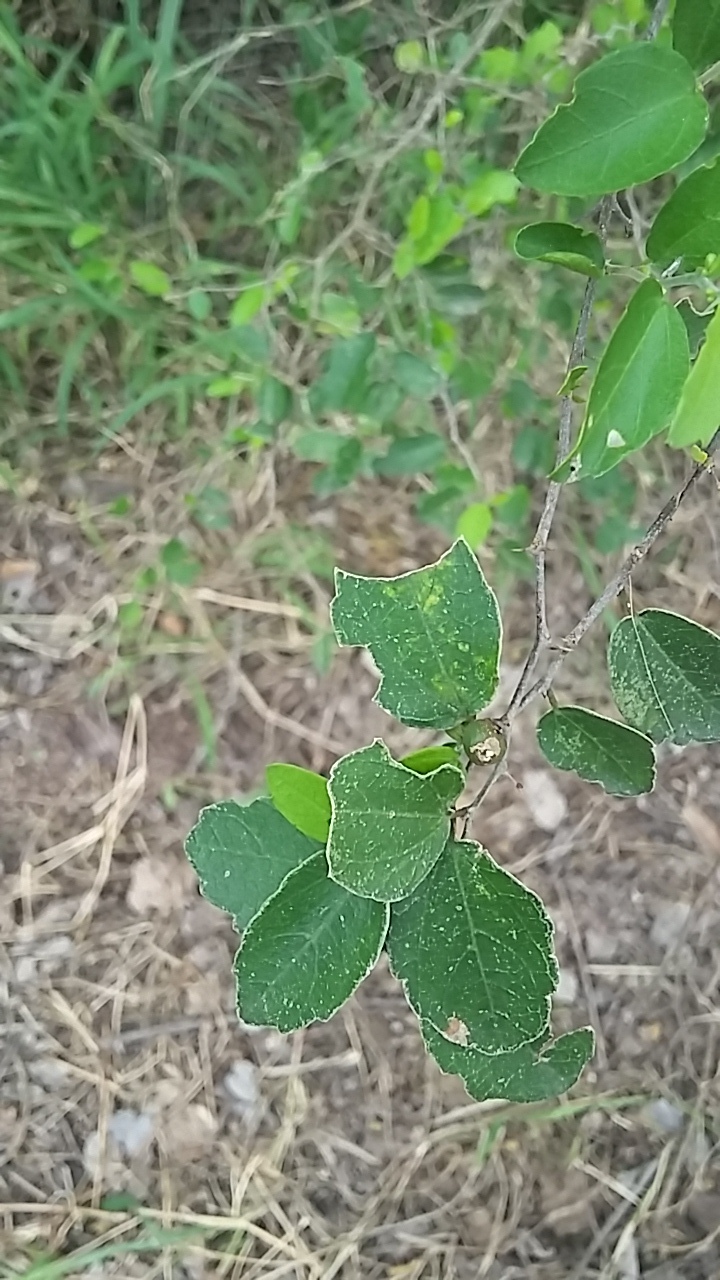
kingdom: Plantae
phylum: Tracheophyta
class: Magnoliopsida
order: Rosales
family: Cannabaceae
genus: Celtis
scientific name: Celtis pallida
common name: Desert hackberry
